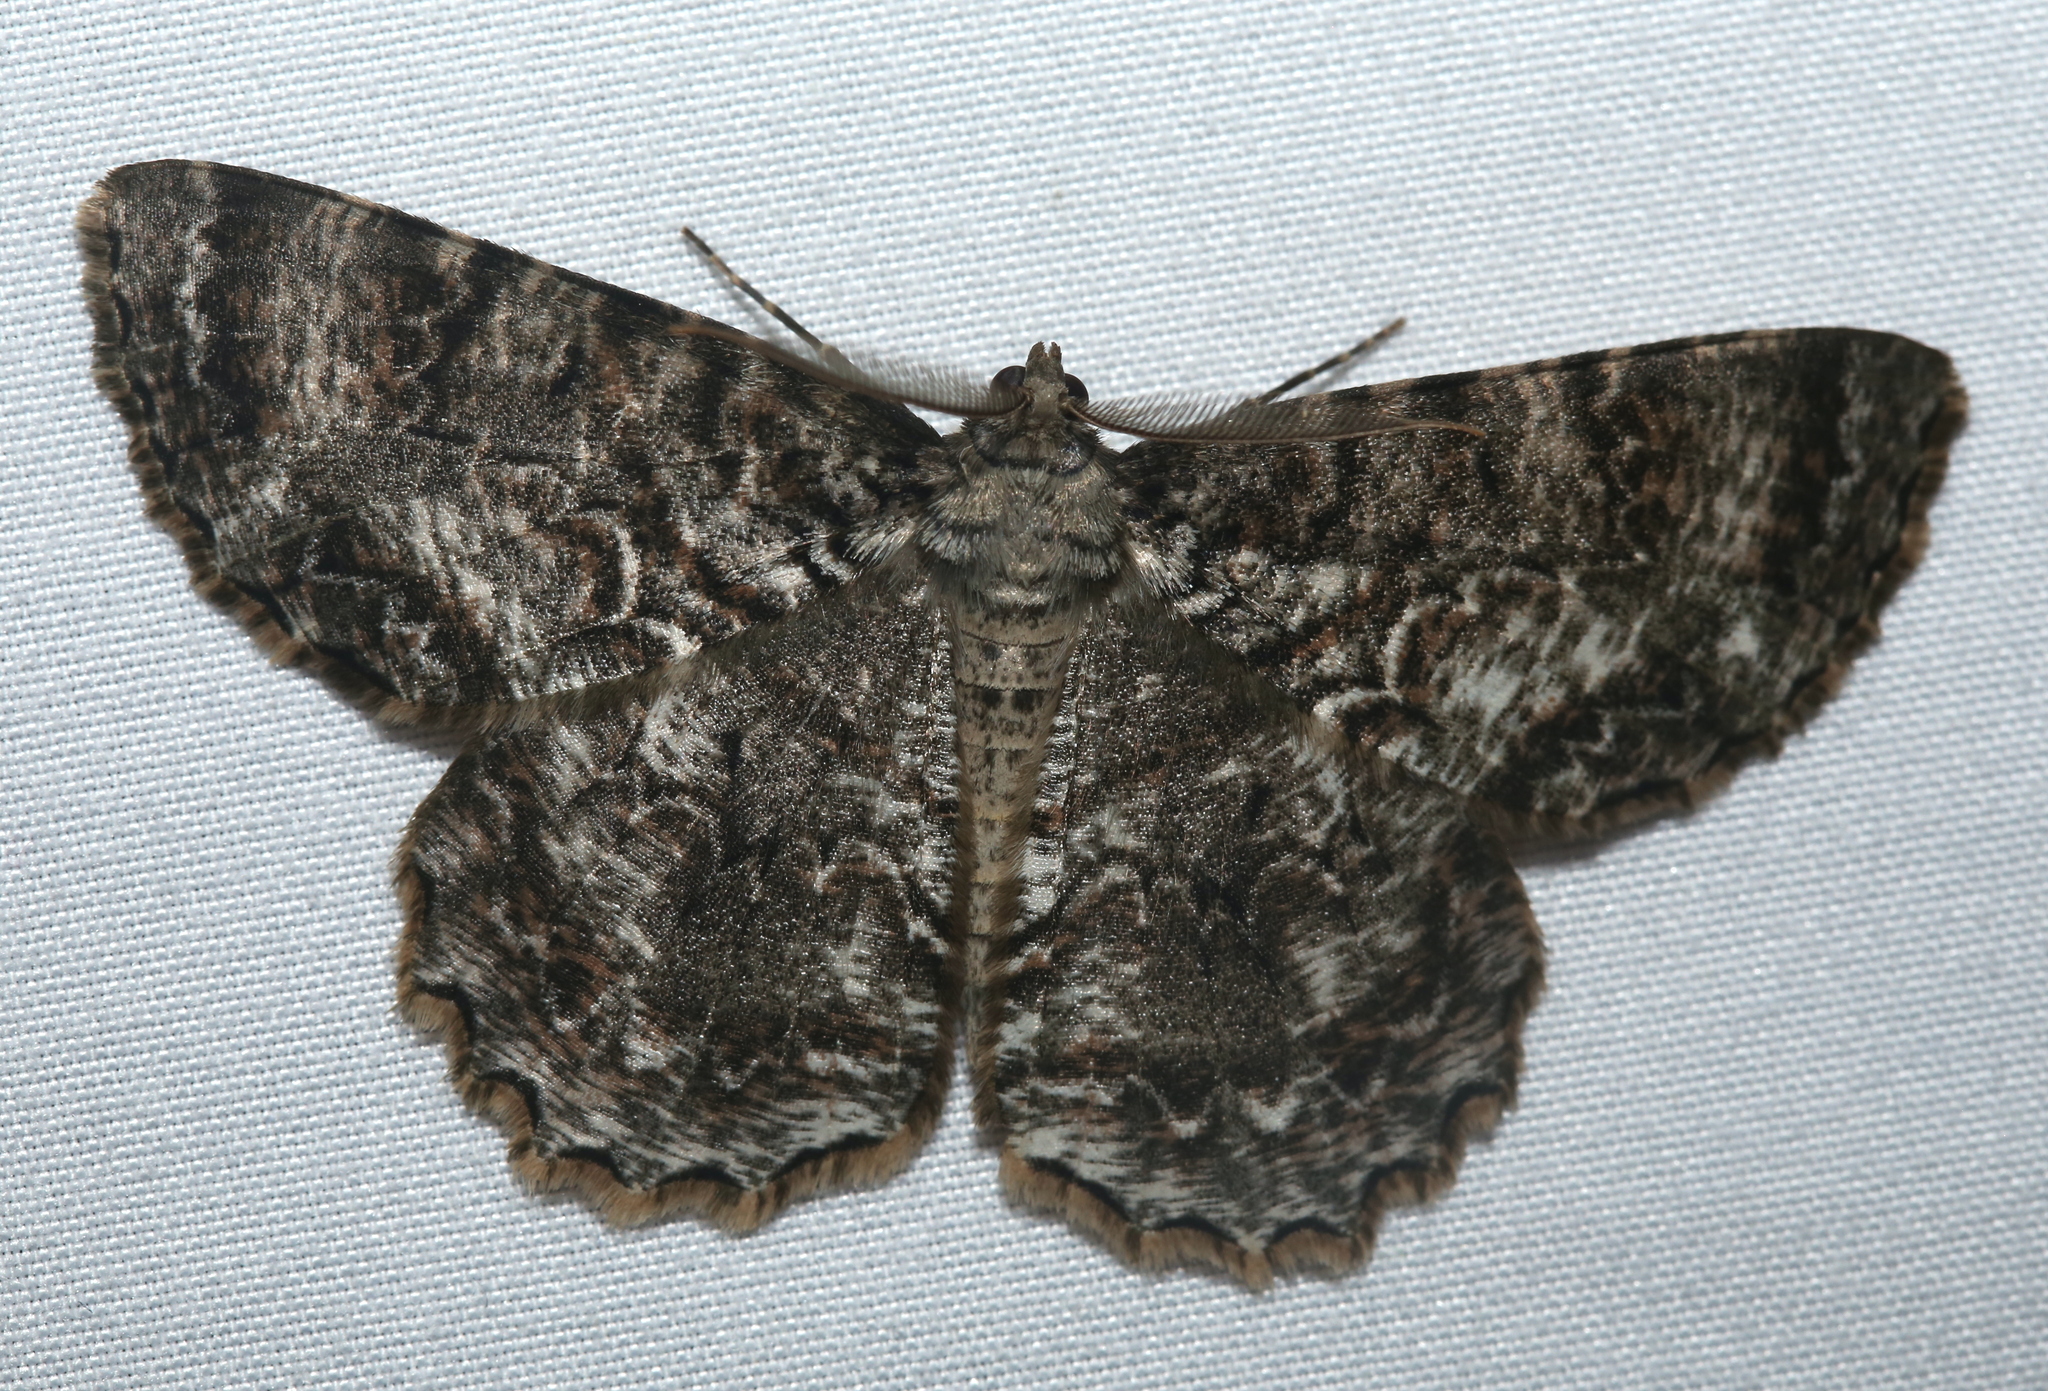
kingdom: Animalia
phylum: Arthropoda
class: Insecta
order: Lepidoptera
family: Geometridae
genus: Epimecis
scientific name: Epimecis hortaria
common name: Tulip-tree beauty
